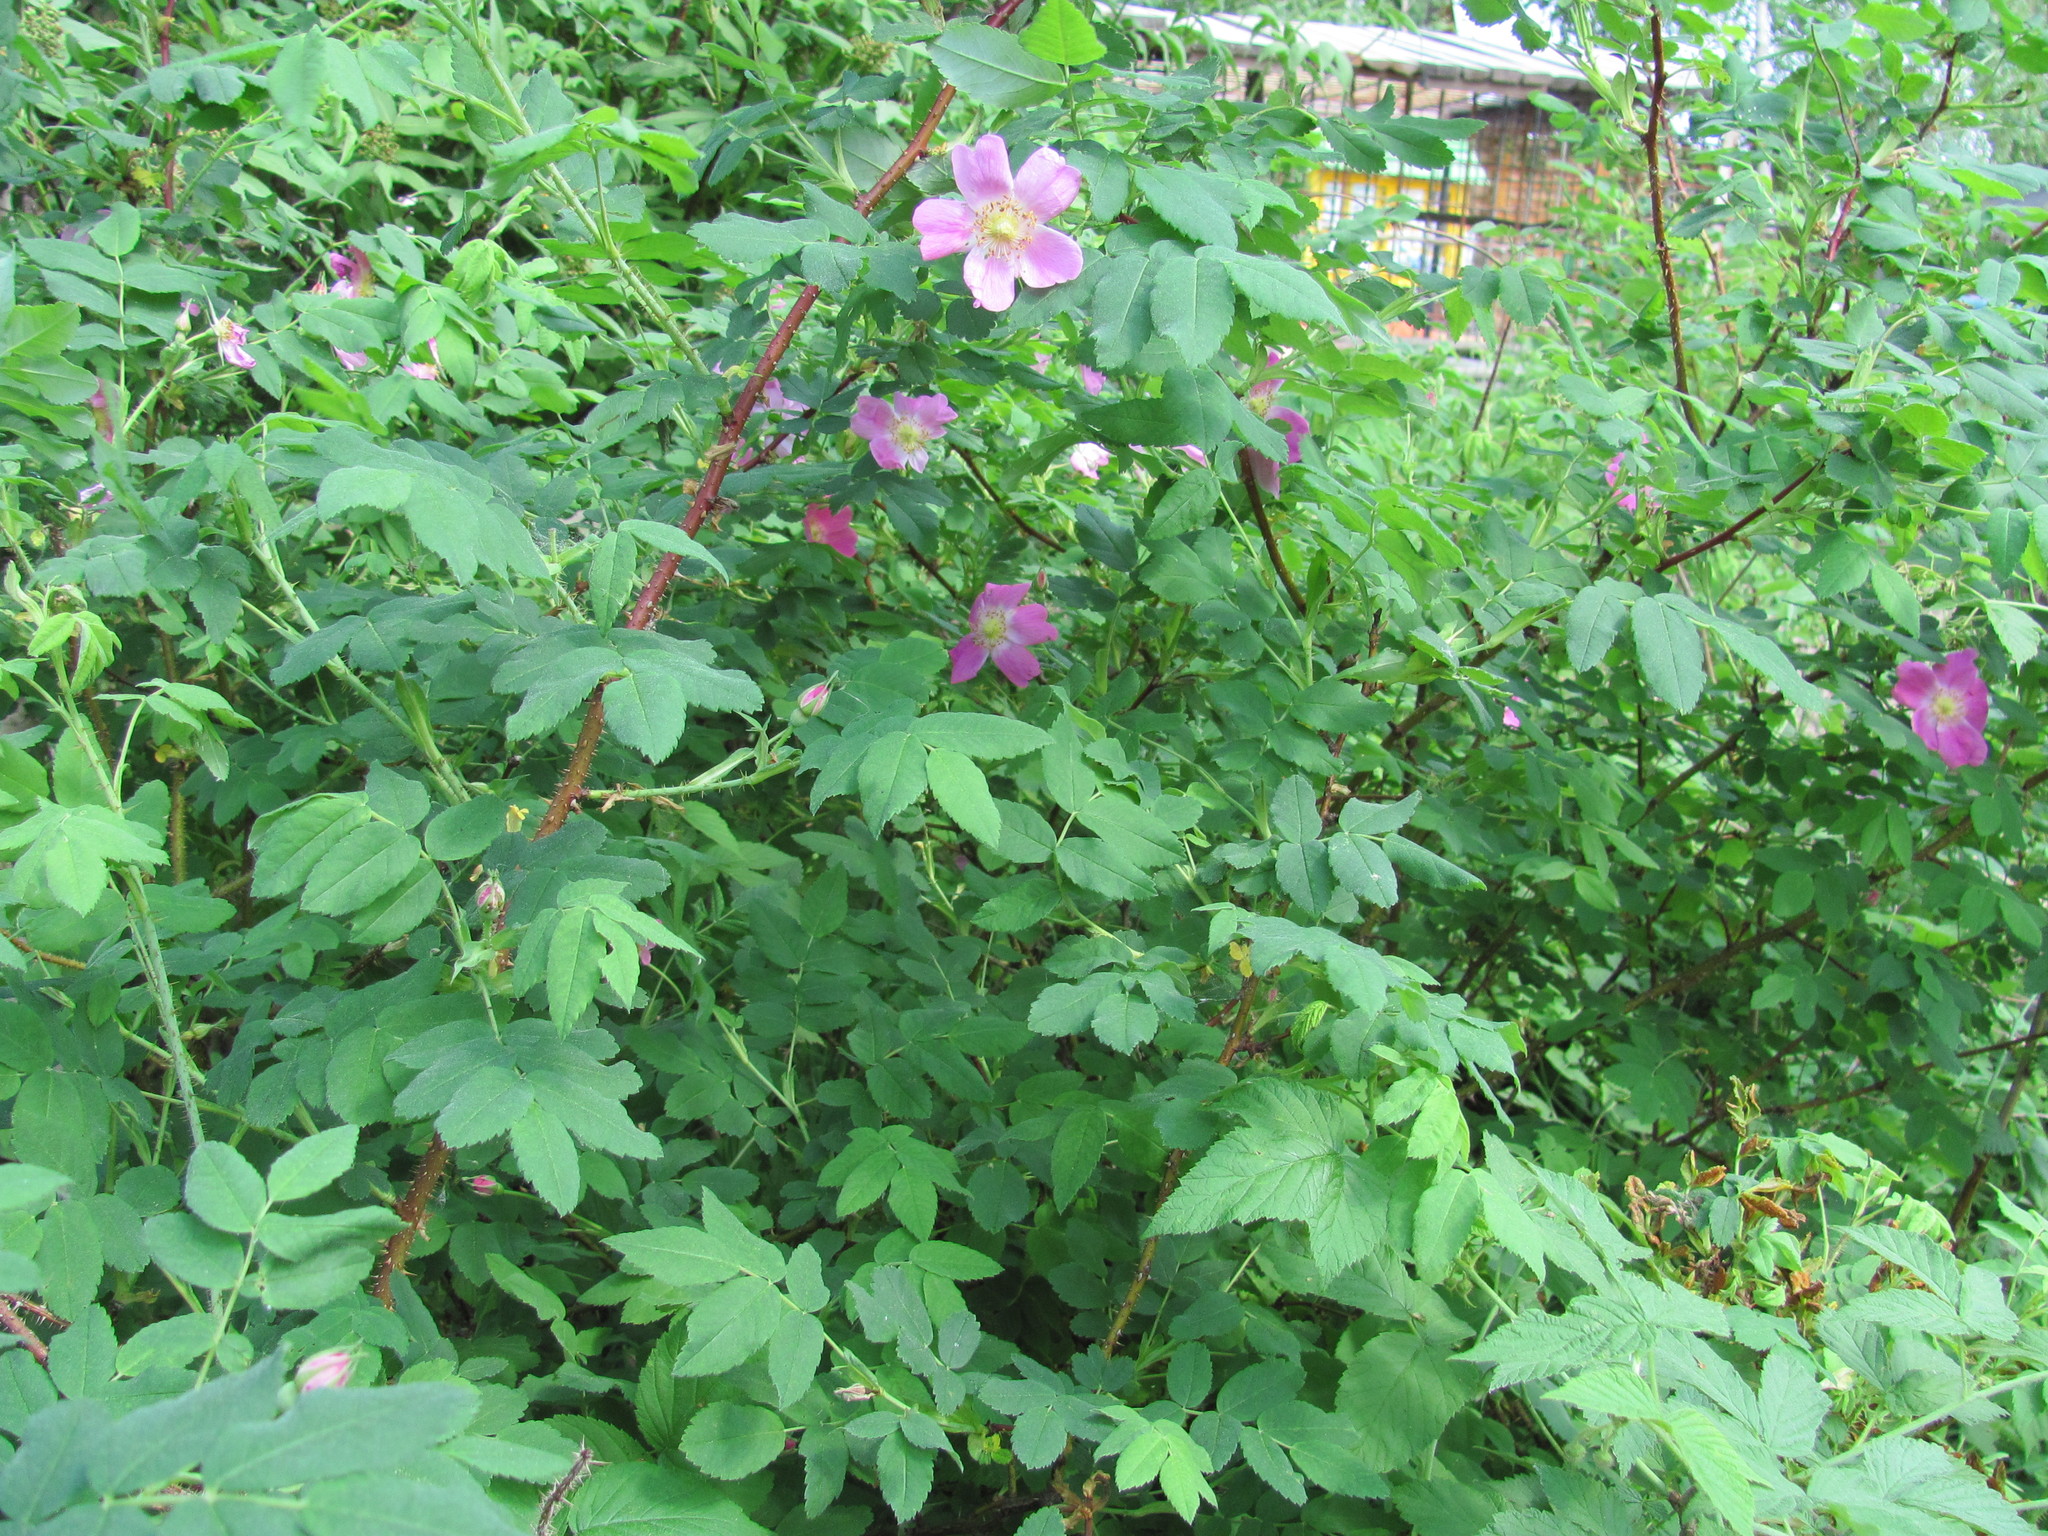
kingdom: Plantae
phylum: Tracheophyta
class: Magnoliopsida
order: Rosales
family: Rosaceae
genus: Rosa
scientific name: Rosa acicularis
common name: Prickly rose
